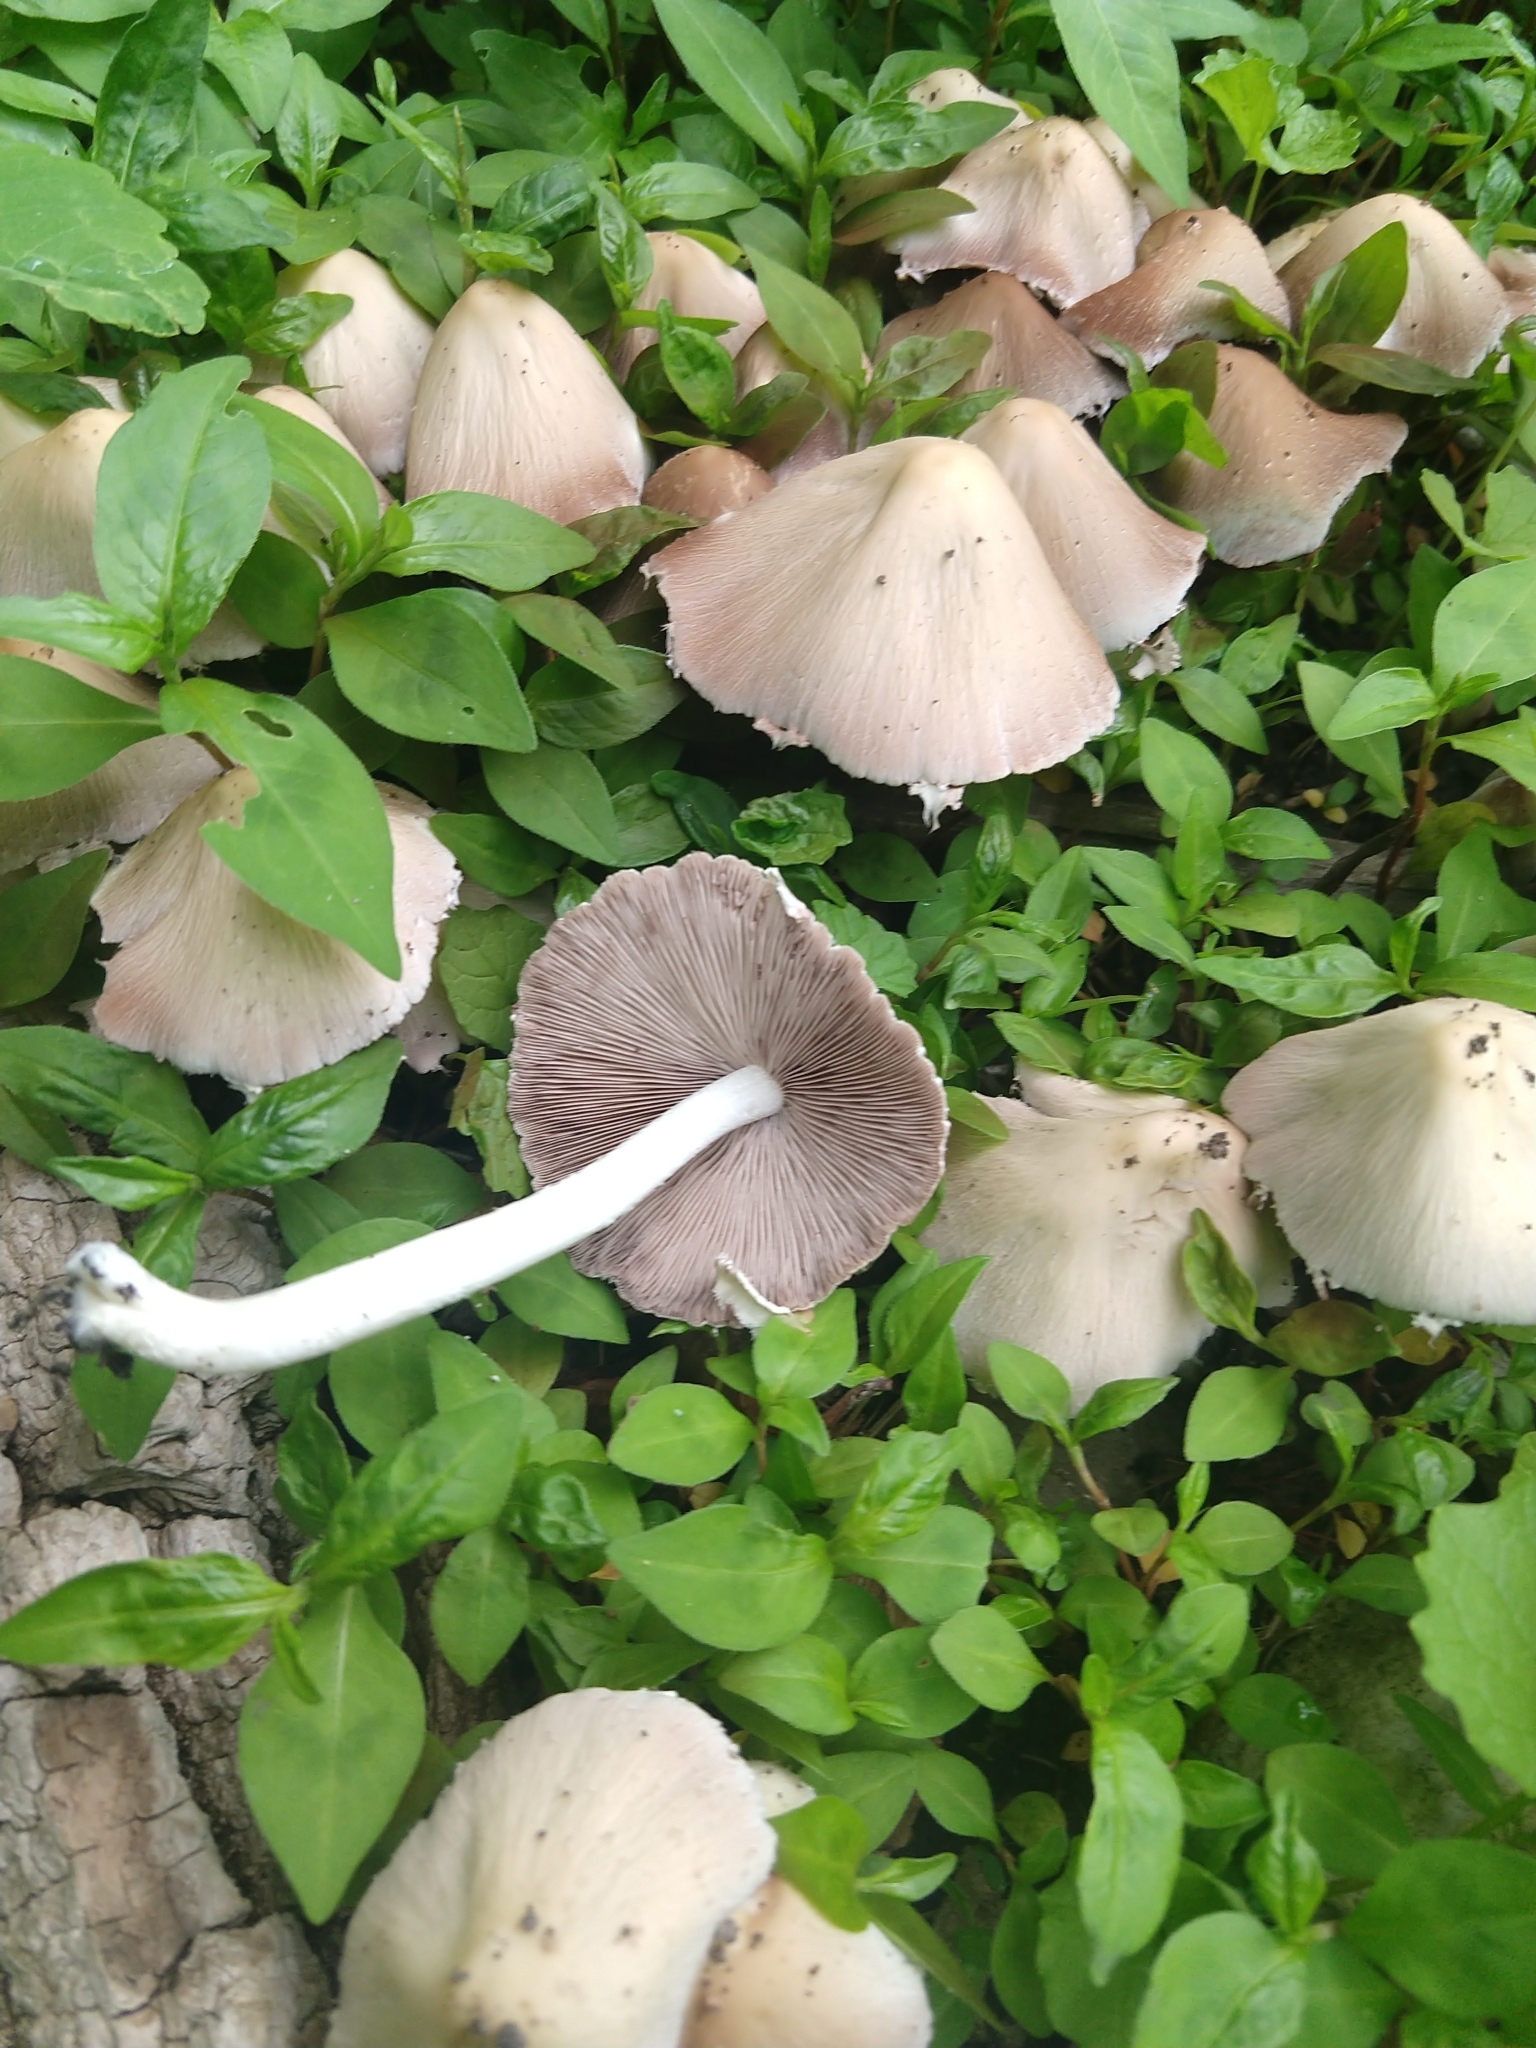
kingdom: Fungi
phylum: Basidiomycota
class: Agaricomycetes
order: Agaricales
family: Psathyrellaceae
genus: Candolleomyces
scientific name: Candolleomyces candolleanus
